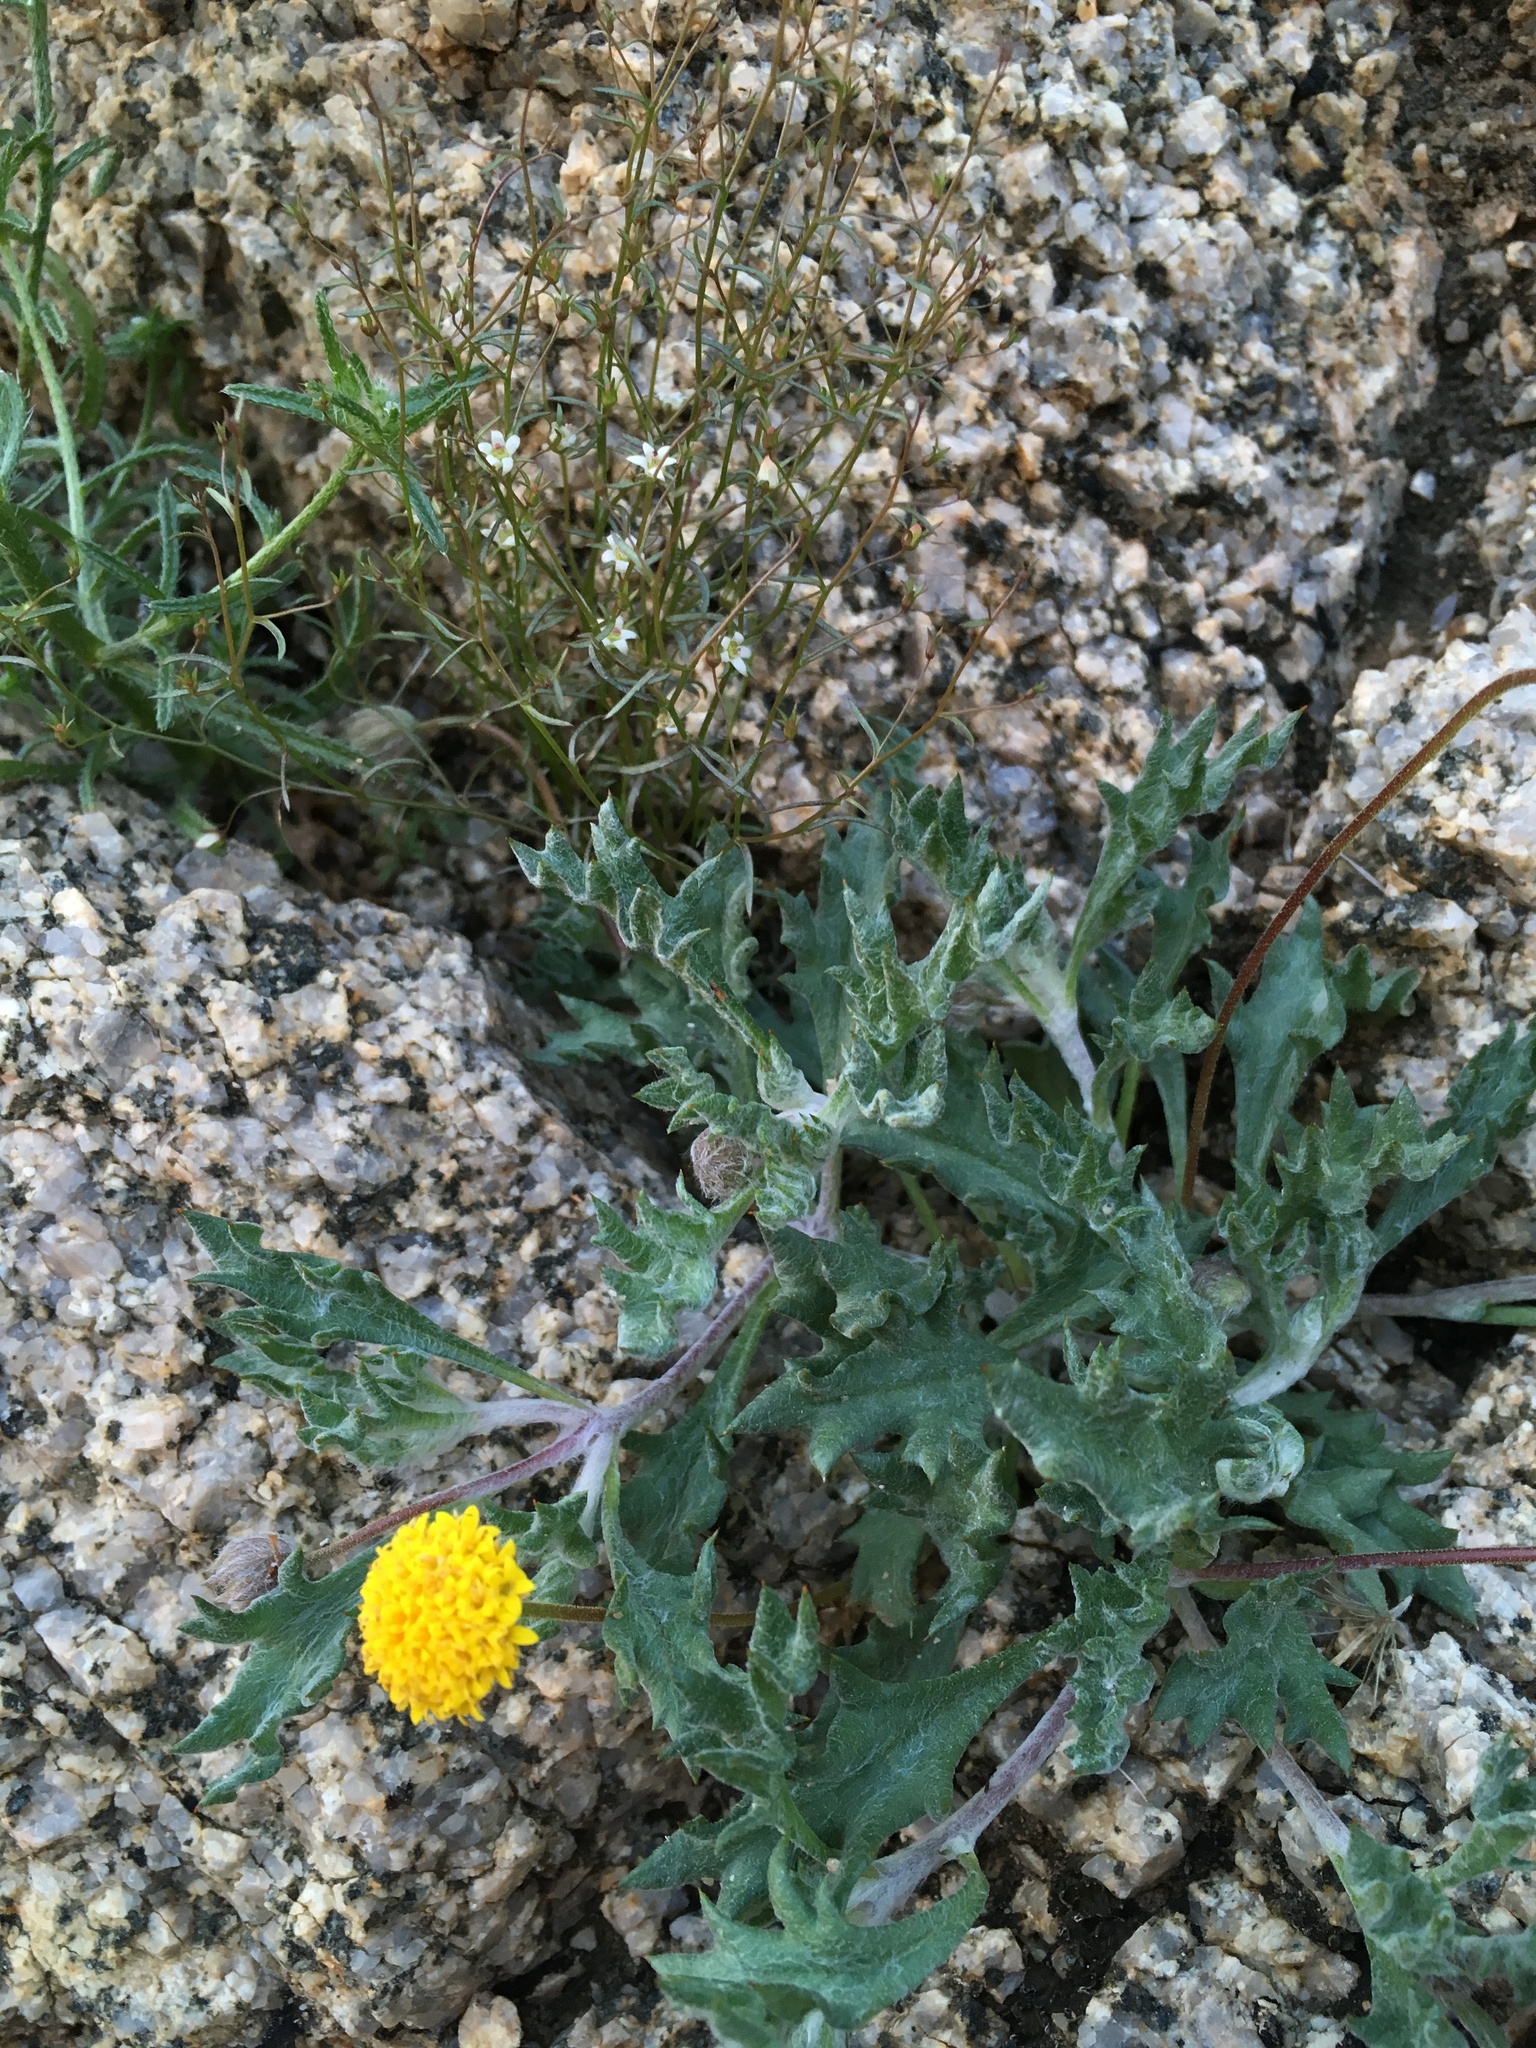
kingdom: Plantae
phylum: Tracheophyta
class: Magnoliopsida
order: Asterales
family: Asteraceae
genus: Trichoptilium
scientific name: Trichoptilium incisum
